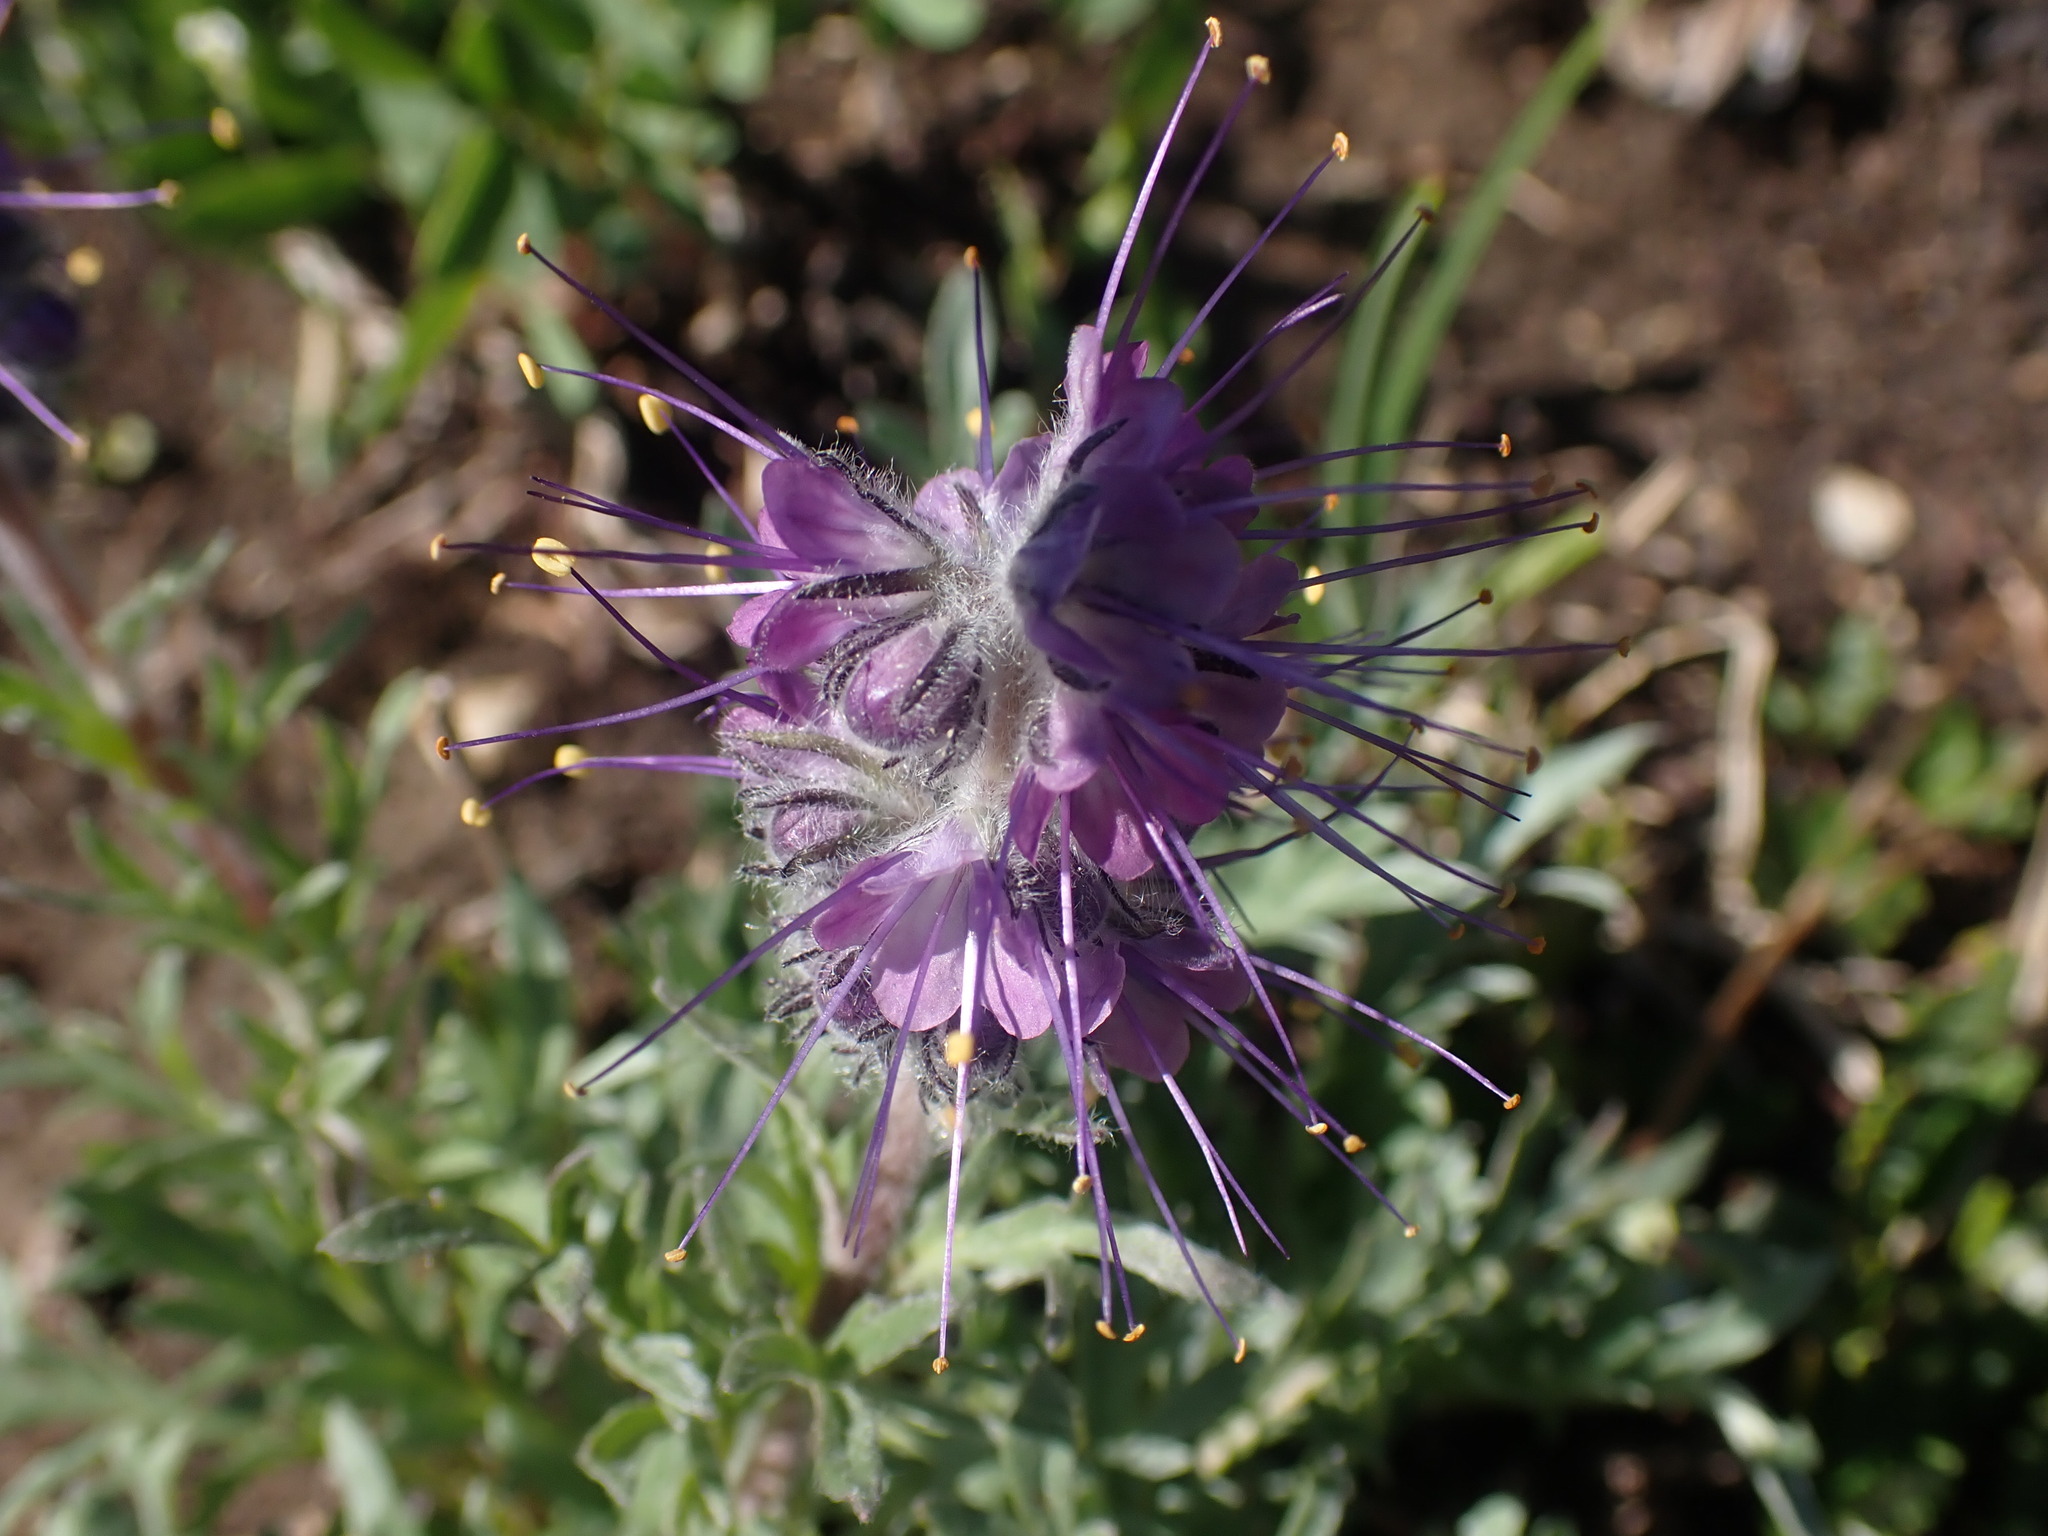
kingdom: Plantae
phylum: Tracheophyta
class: Magnoliopsida
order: Boraginales
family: Hydrophyllaceae
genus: Phacelia
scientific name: Phacelia sericea
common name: Silky phacelia
